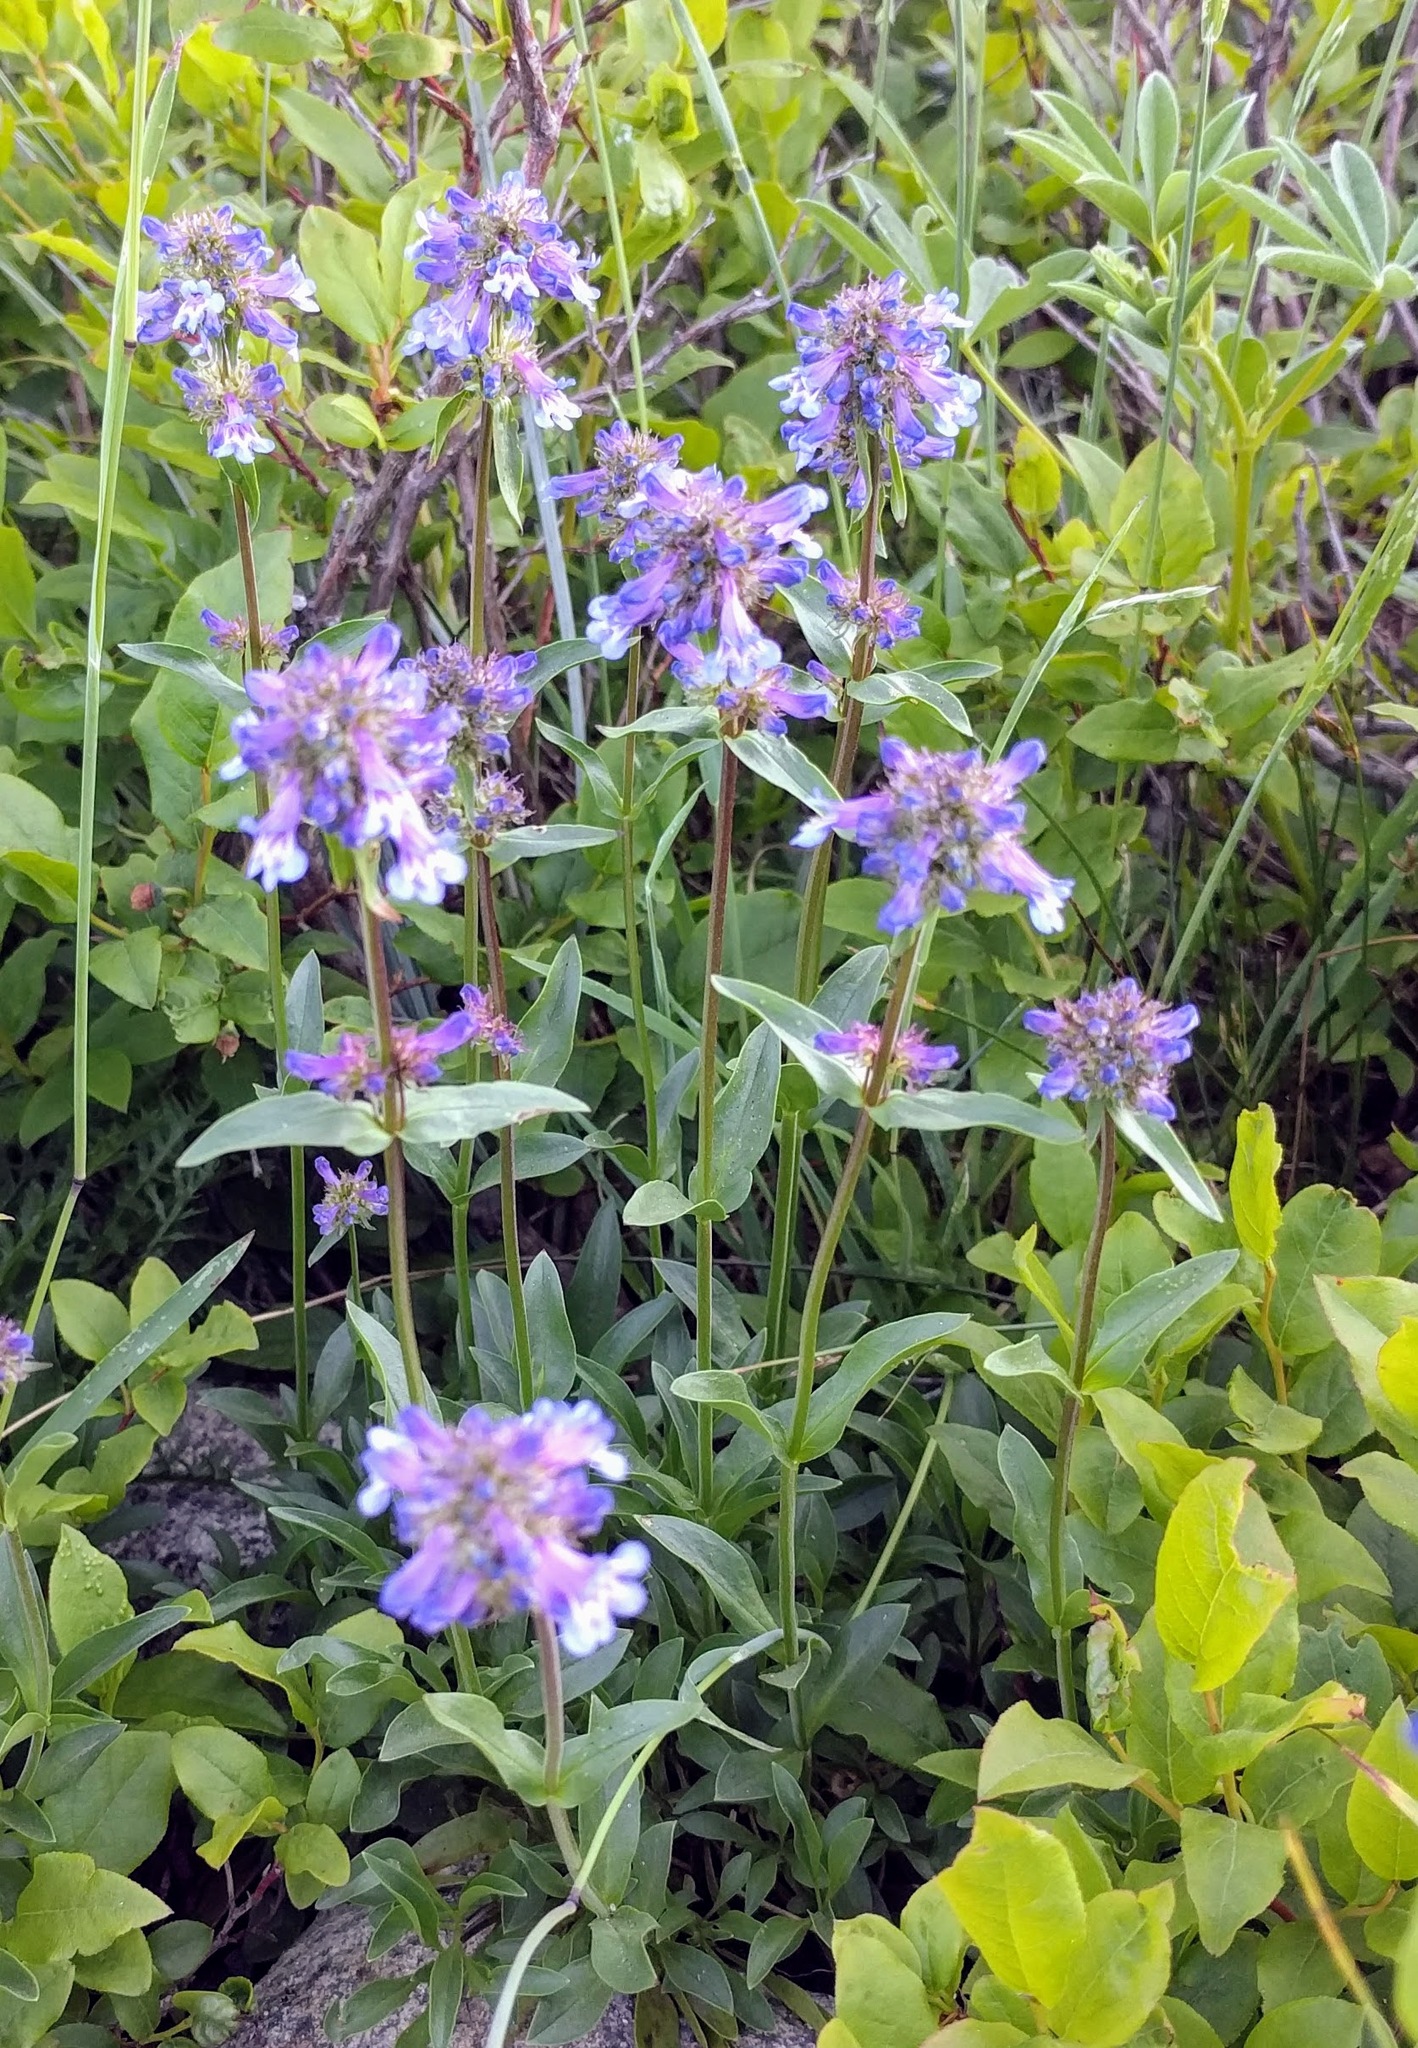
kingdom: Plantae
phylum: Tracheophyta
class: Magnoliopsida
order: Lamiales
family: Plantaginaceae
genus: Penstemon
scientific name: Penstemon procerus
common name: Small-flower penstemon
